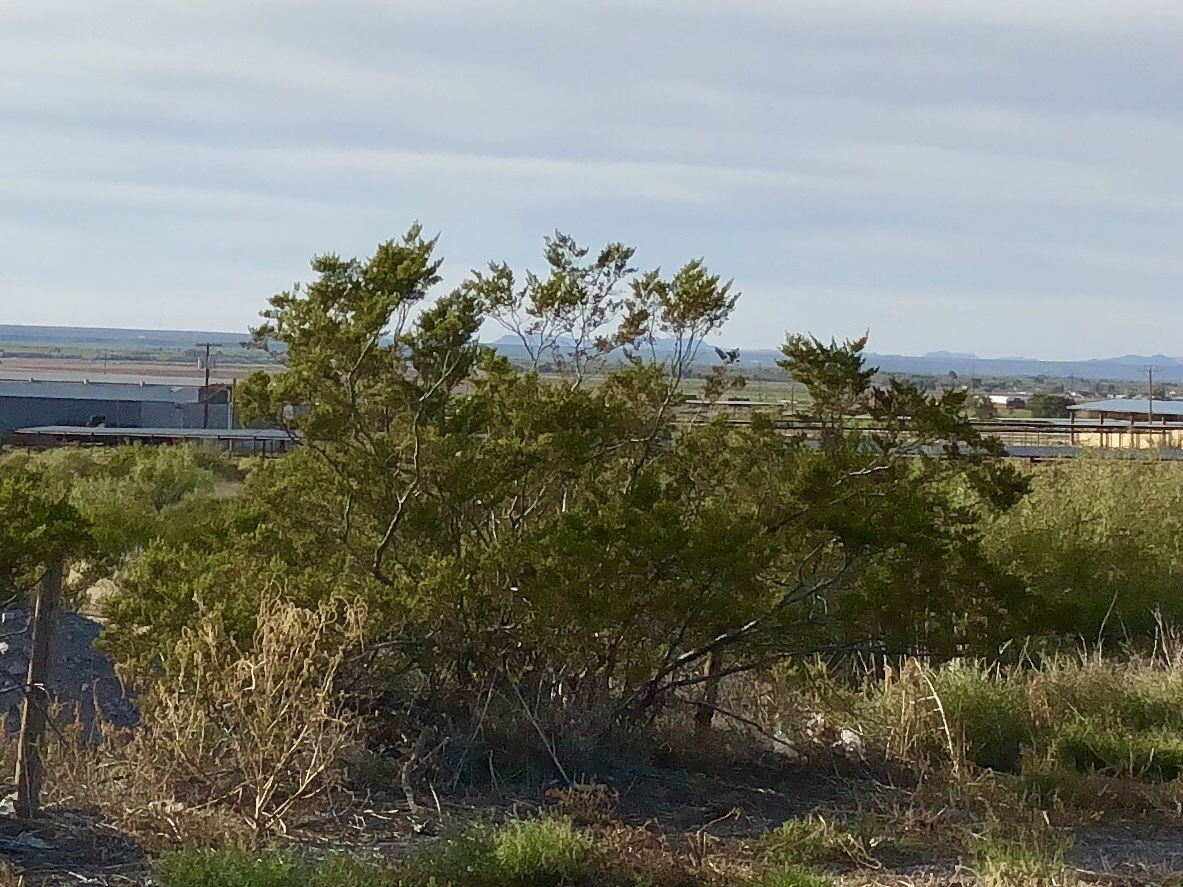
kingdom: Plantae
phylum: Tracheophyta
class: Magnoliopsida
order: Zygophyllales
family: Zygophyllaceae
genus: Larrea
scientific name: Larrea tridentata
